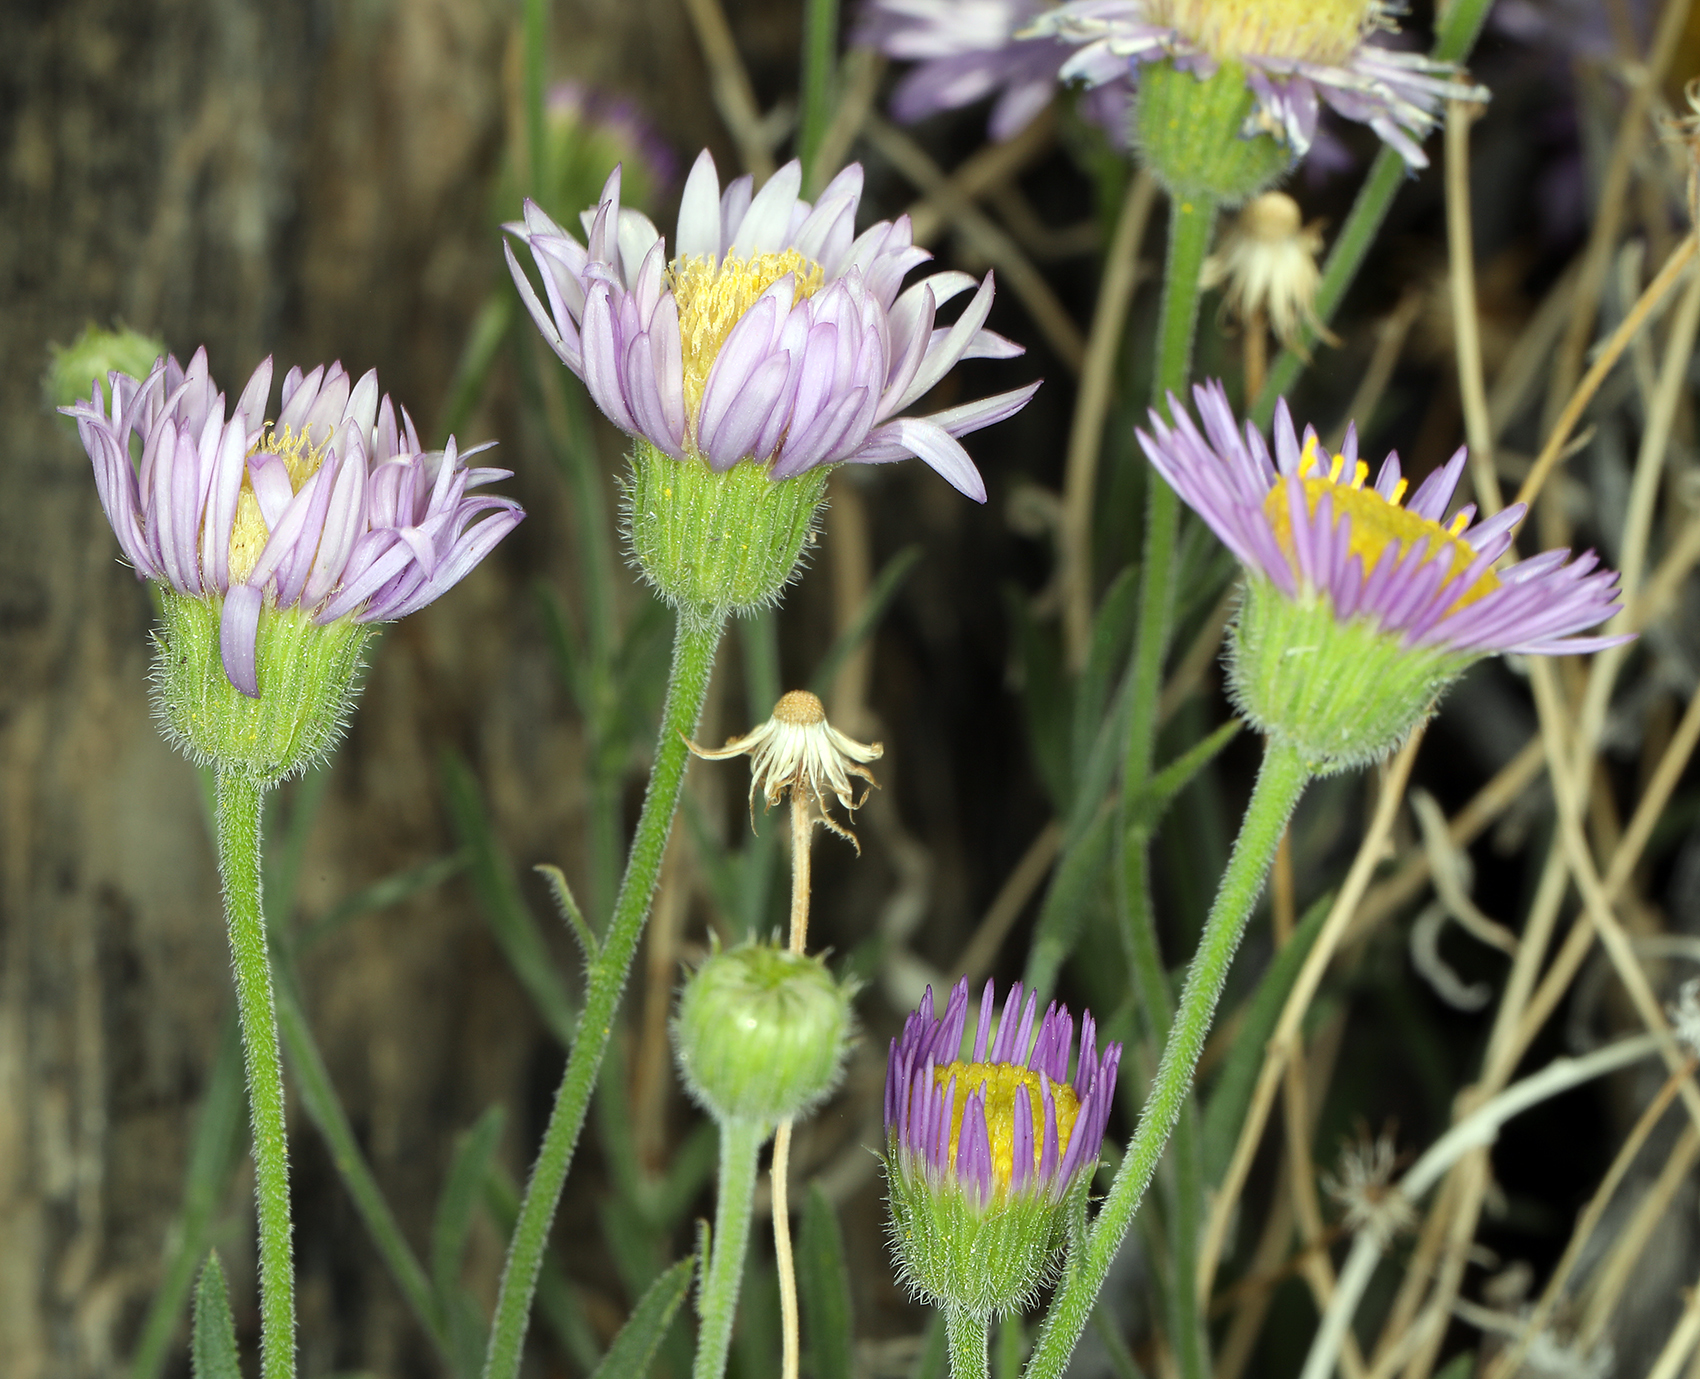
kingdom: Plantae
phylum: Tracheophyta
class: Magnoliopsida
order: Asterales
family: Asteraceae
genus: Erigeron
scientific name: Erigeron breweri
